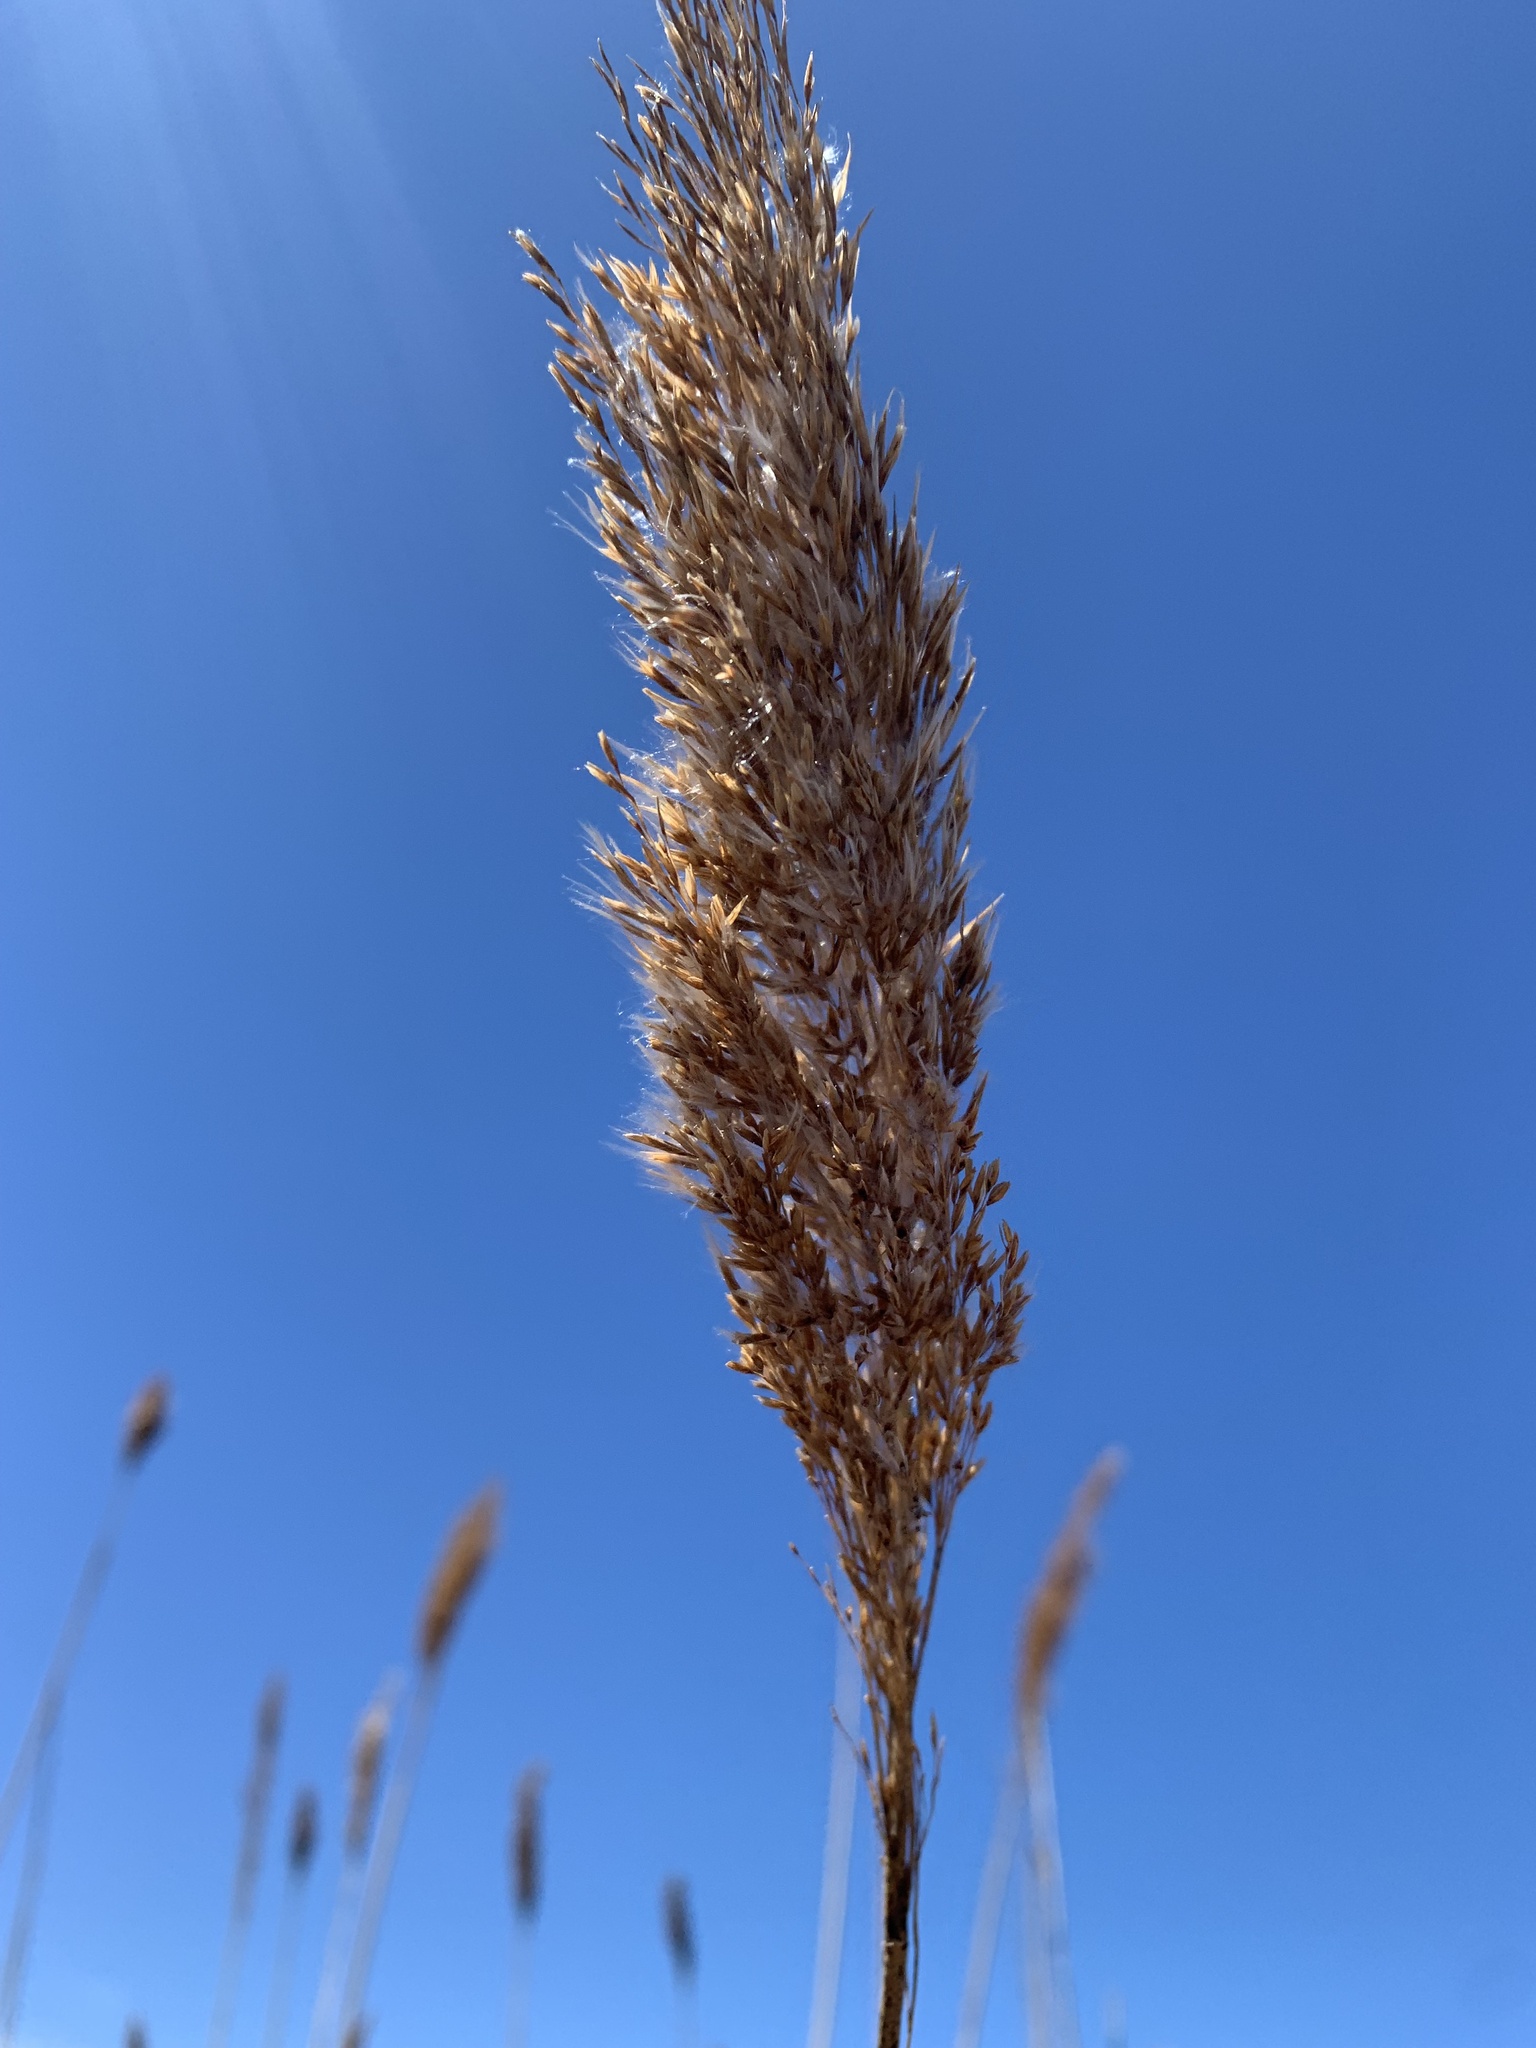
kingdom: Plantae
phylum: Tracheophyta
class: Liliopsida
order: Poales
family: Poaceae
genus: Phragmites
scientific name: Phragmites australis
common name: Common reed
